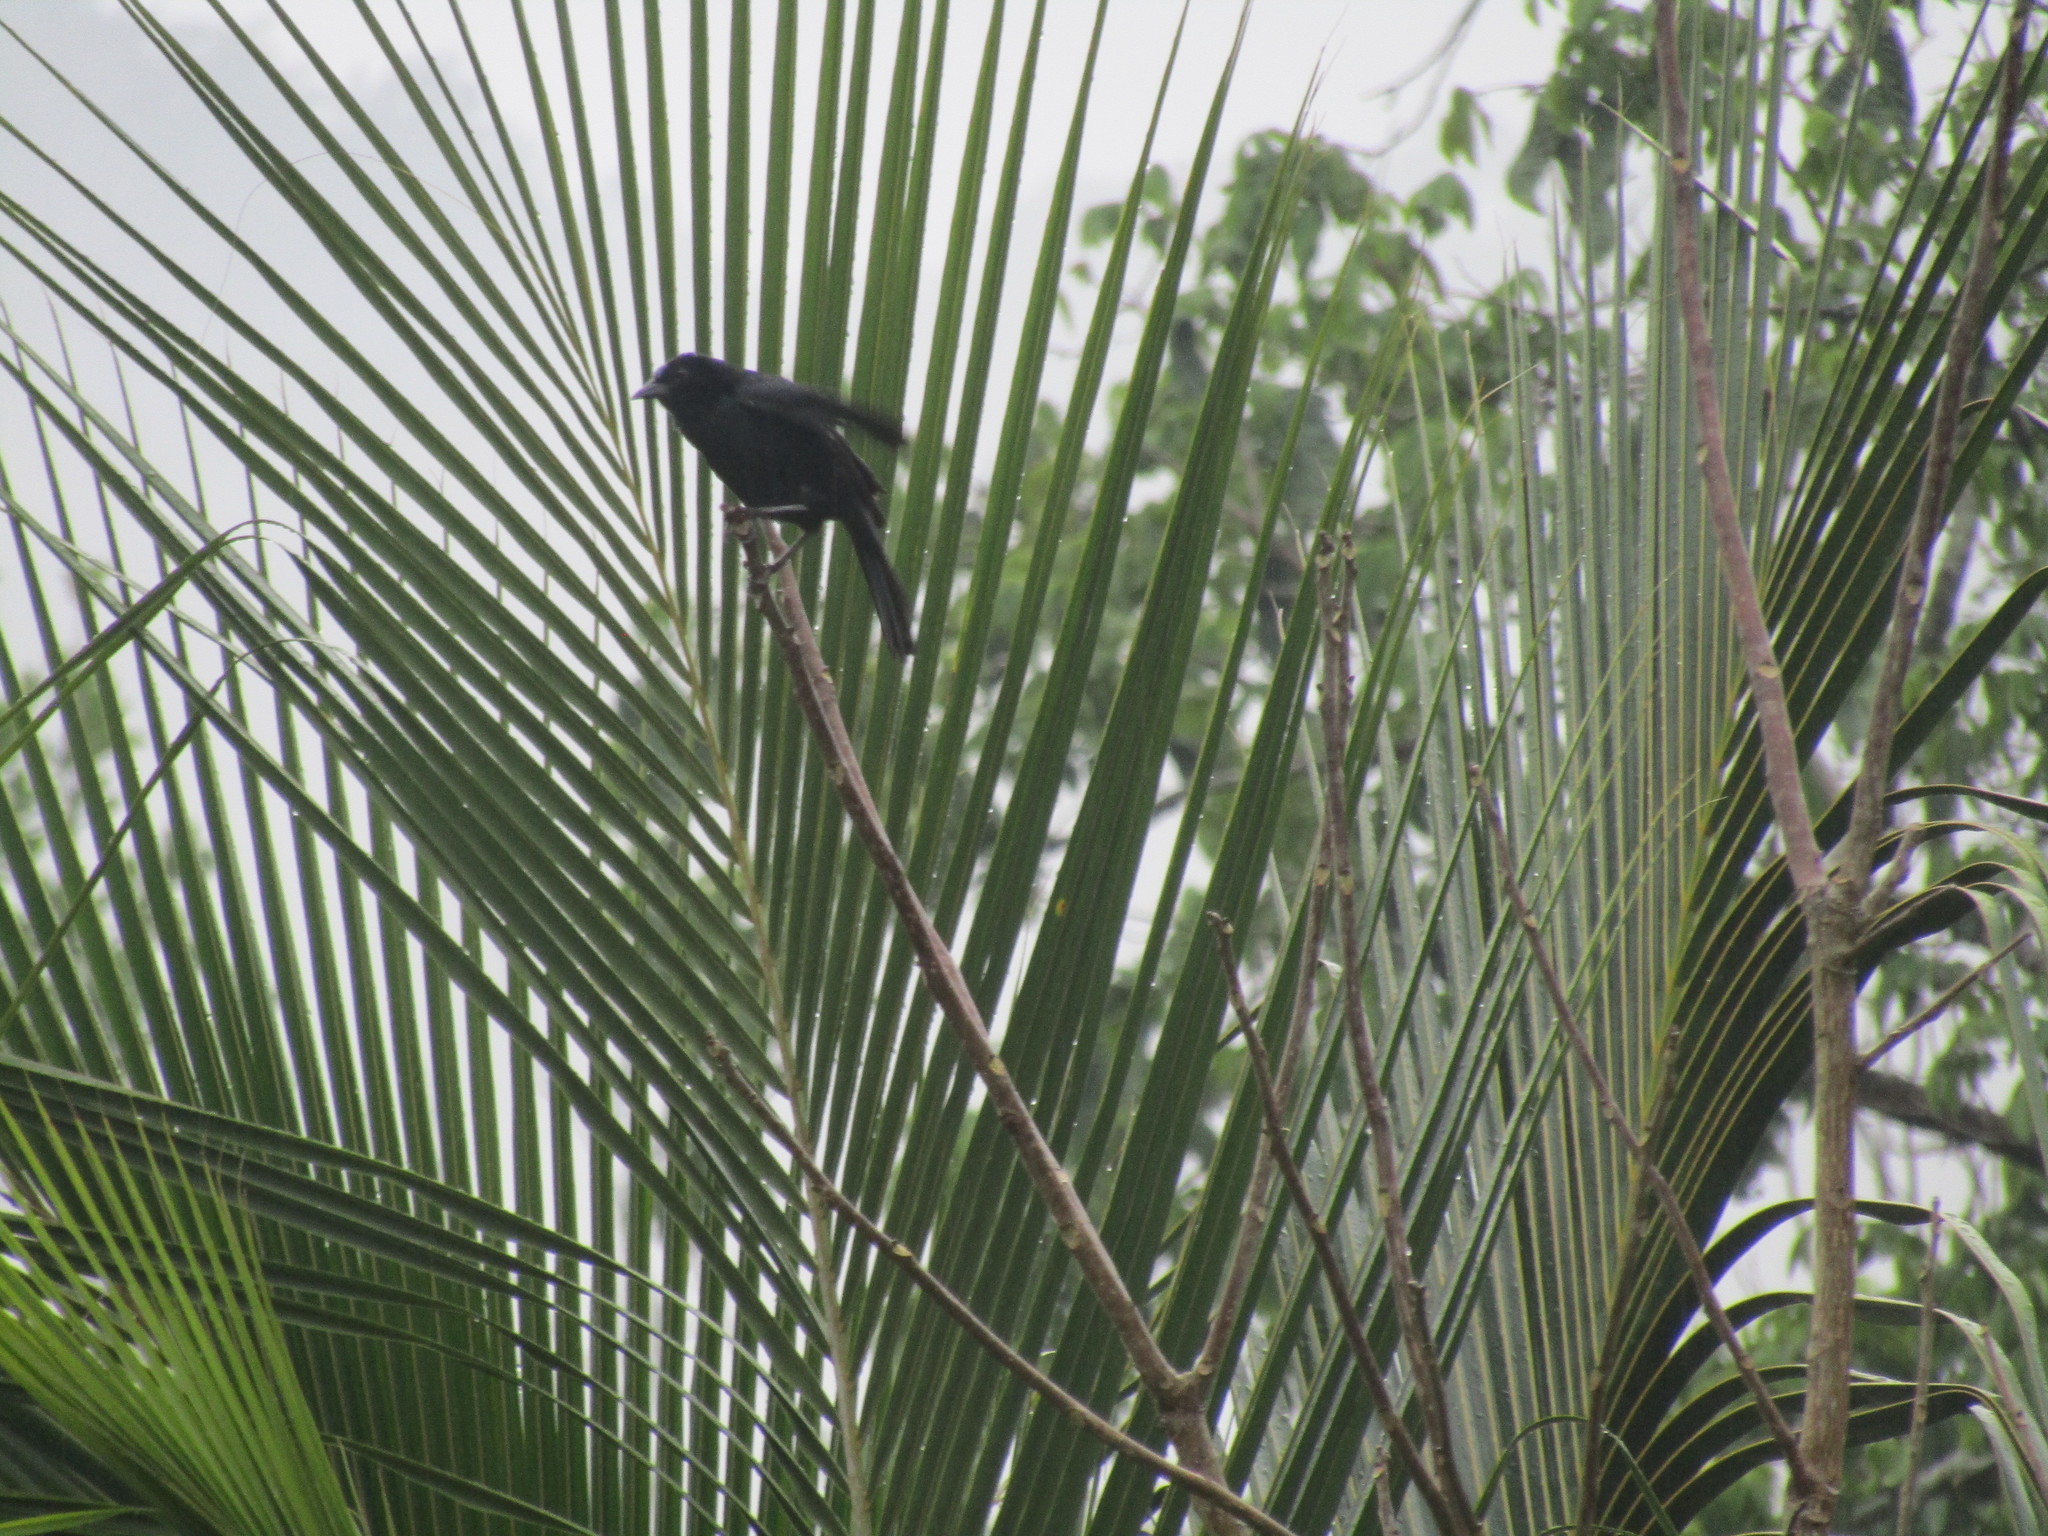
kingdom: Animalia
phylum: Chordata
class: Aves
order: Passeriformes
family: Icteridae
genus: Dives
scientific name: Dives dives
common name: Melodious blackbird
